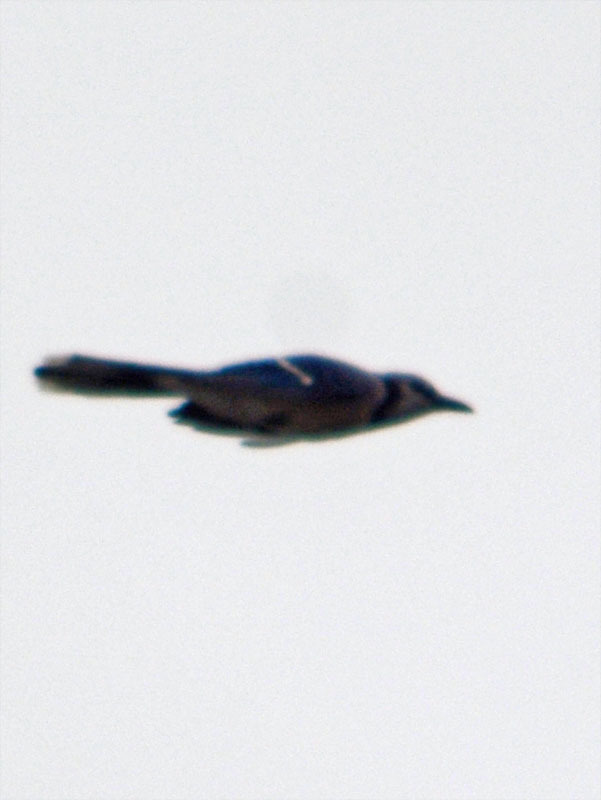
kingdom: Animalia
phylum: Chordata
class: Aves
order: Passeriformes
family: Corvidae
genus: Cyanocitta
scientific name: Cyanocitta cristata
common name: Blue jay
